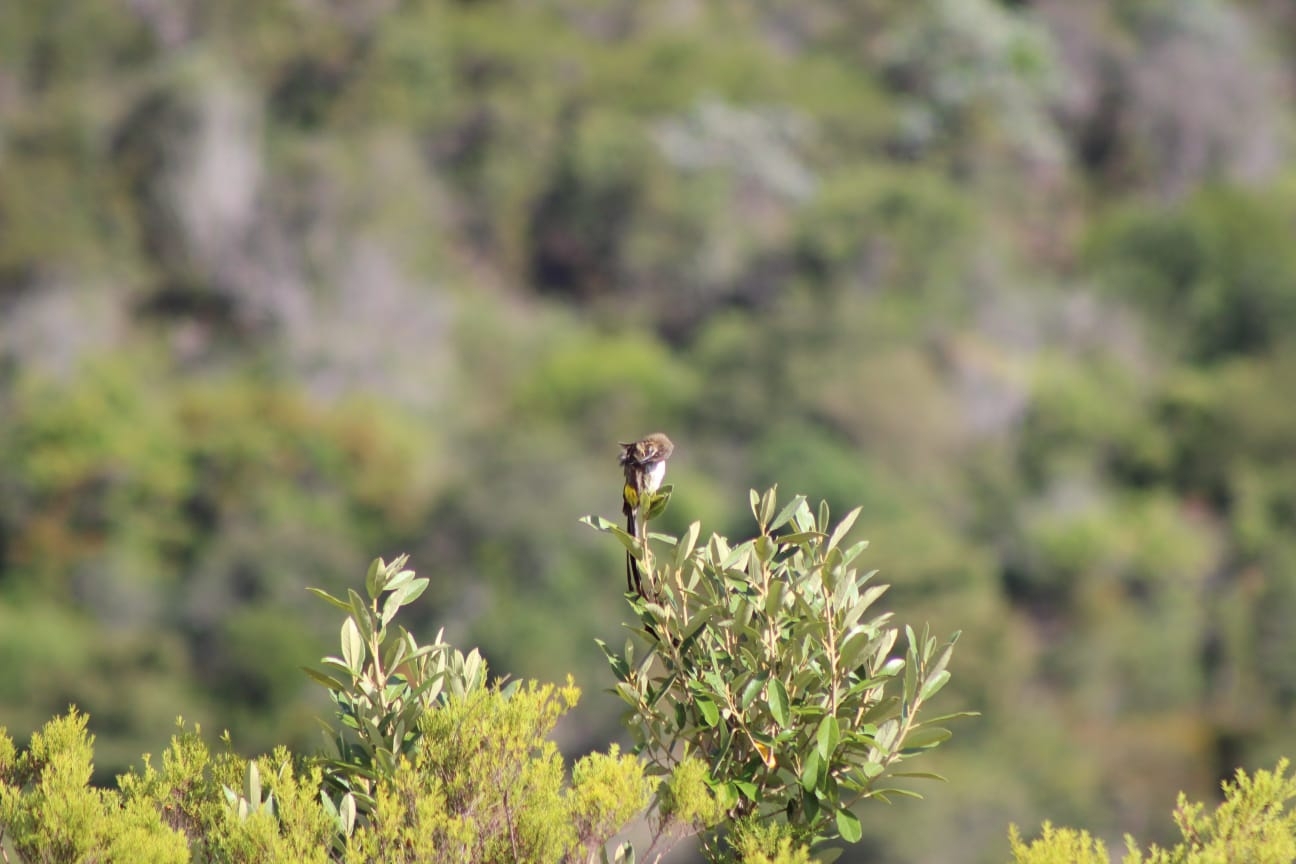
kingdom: Animalia
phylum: Chordata
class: Aves
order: Passeriformes
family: Promeropidae
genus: Promerops
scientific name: Promerops cafer
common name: Cape sugarbird
